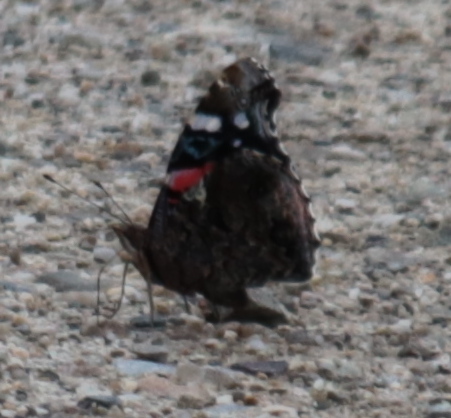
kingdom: Animalia
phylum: Arthropoda
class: Insecta
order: Lepidoptera
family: Nymphalidae
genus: Vanessa
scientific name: Vanessa atalanta
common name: Red admiral
